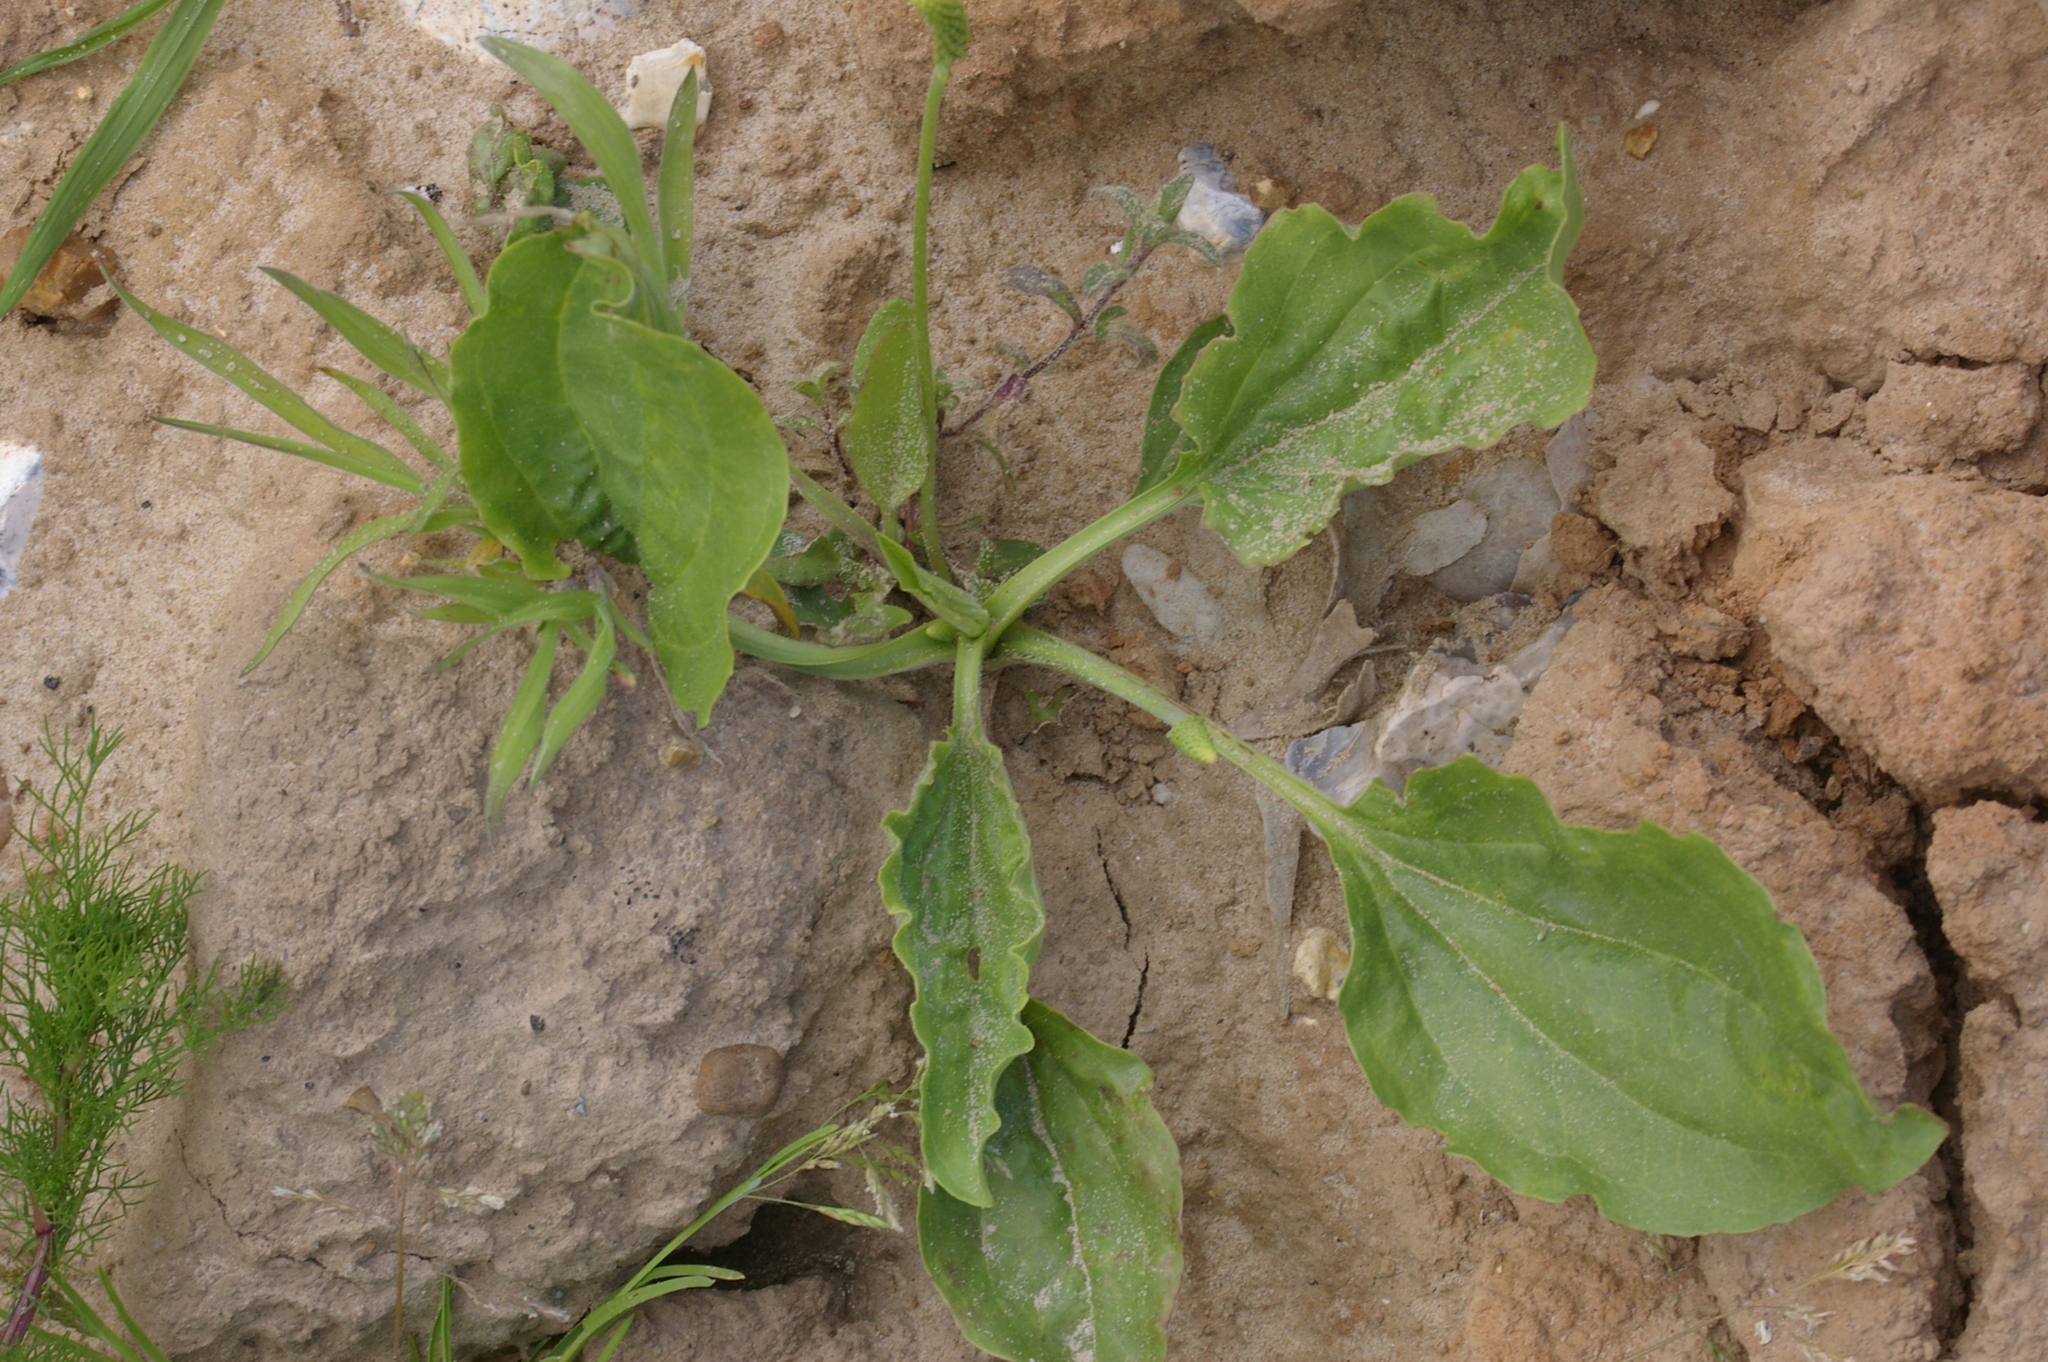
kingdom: Plantae
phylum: Tracheophyta
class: Magnoliopsida
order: Lamiales
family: Plantaginaceae
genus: Plantago
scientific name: Plantago major
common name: Common plantain
